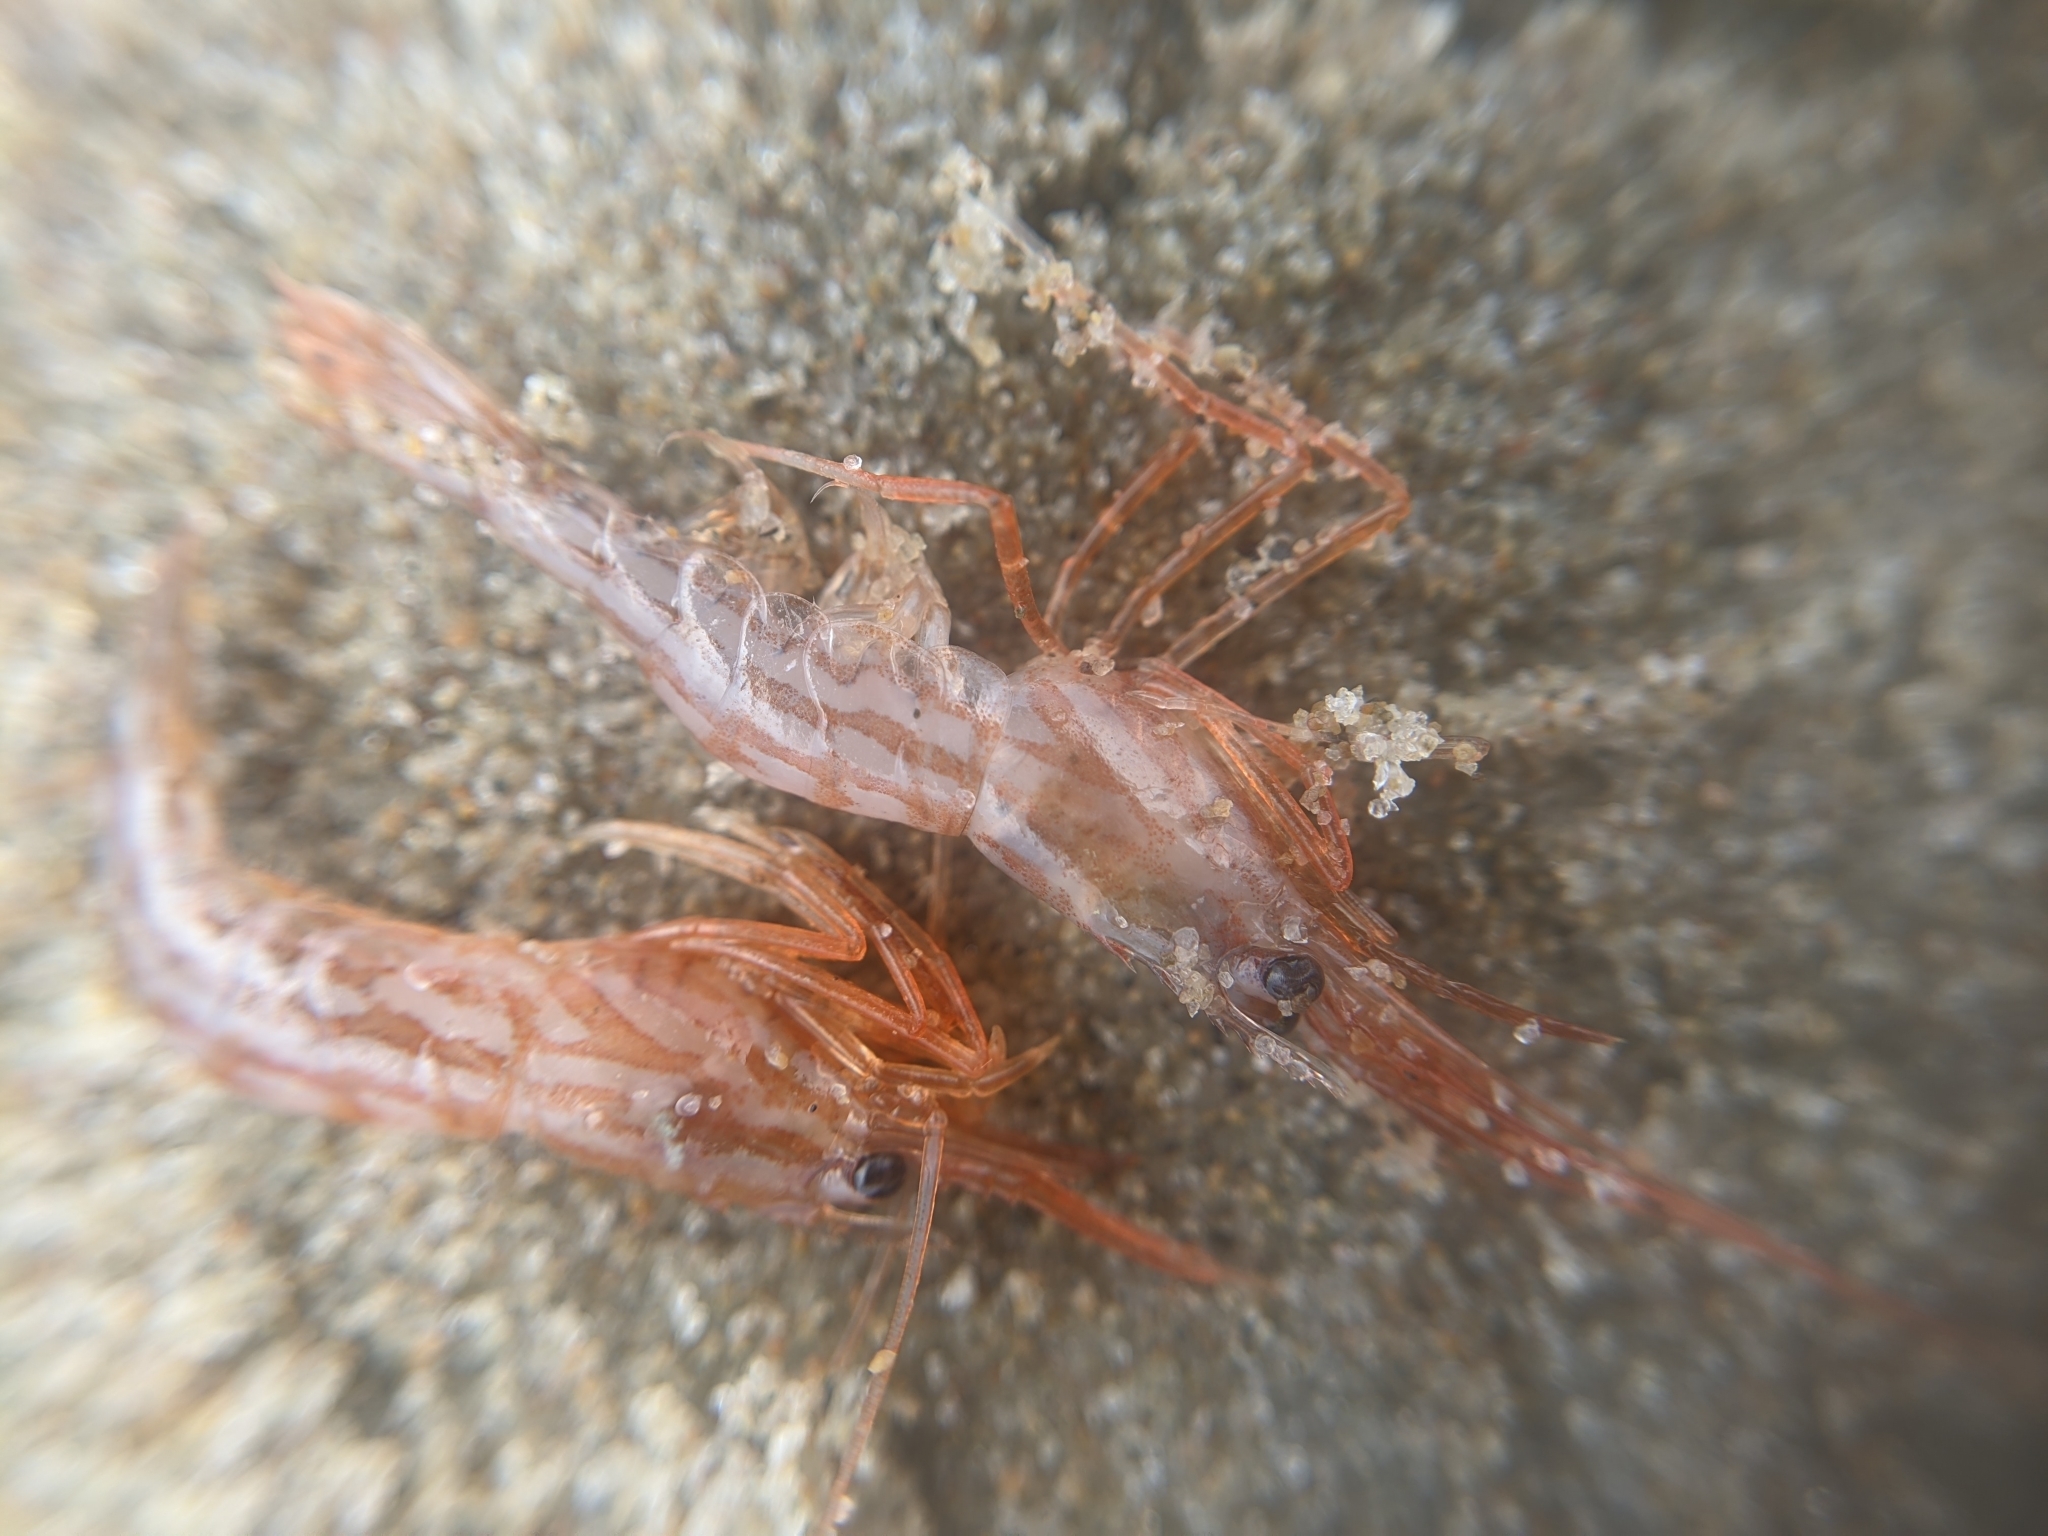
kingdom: Animalia
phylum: Arthropoda
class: Malacostraca
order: Decapoda
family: Lysmatidae
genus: Lysmata
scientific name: Lysmata californica
